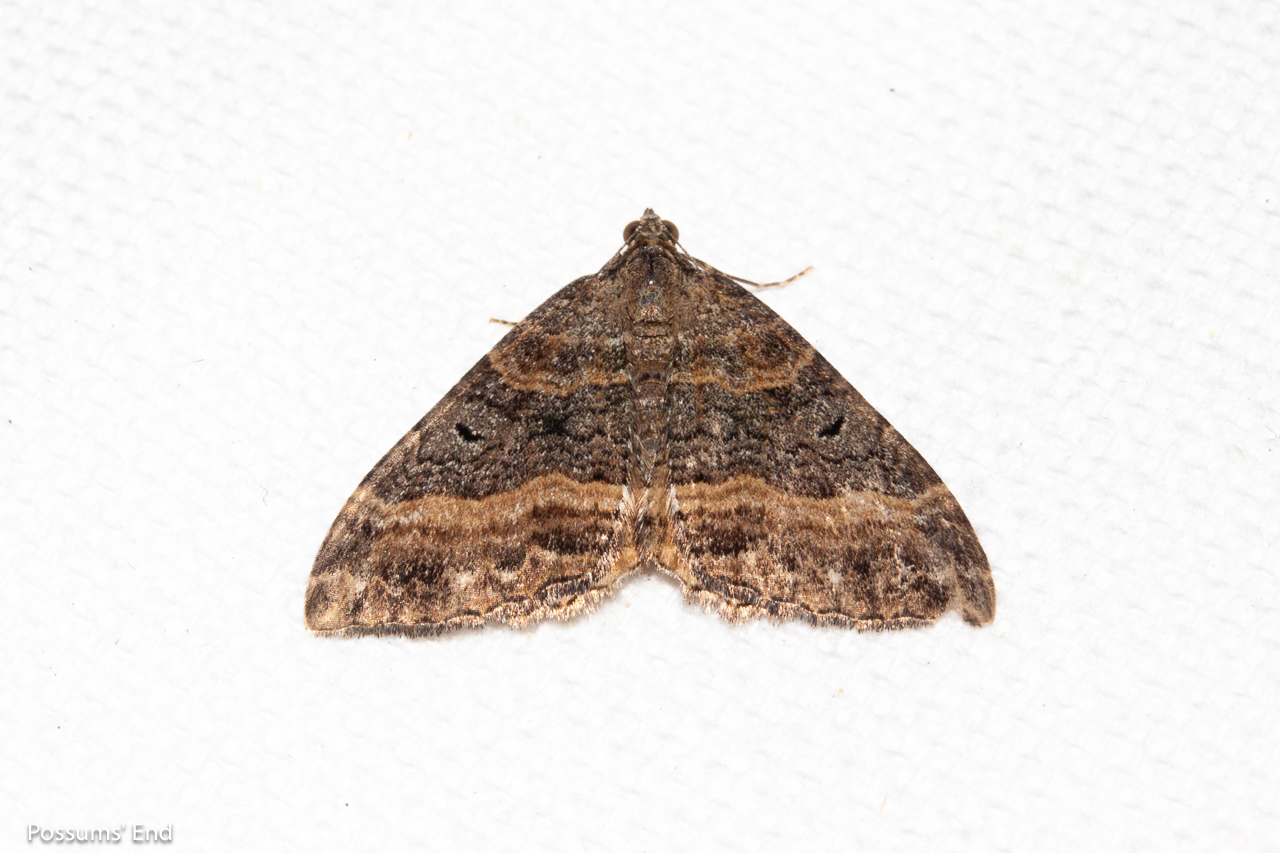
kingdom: Animalia
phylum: Arthropoda
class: Insecta
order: Lepidoptera
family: Geometridae
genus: Hydriomena
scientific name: Hydriomena deltoidata
